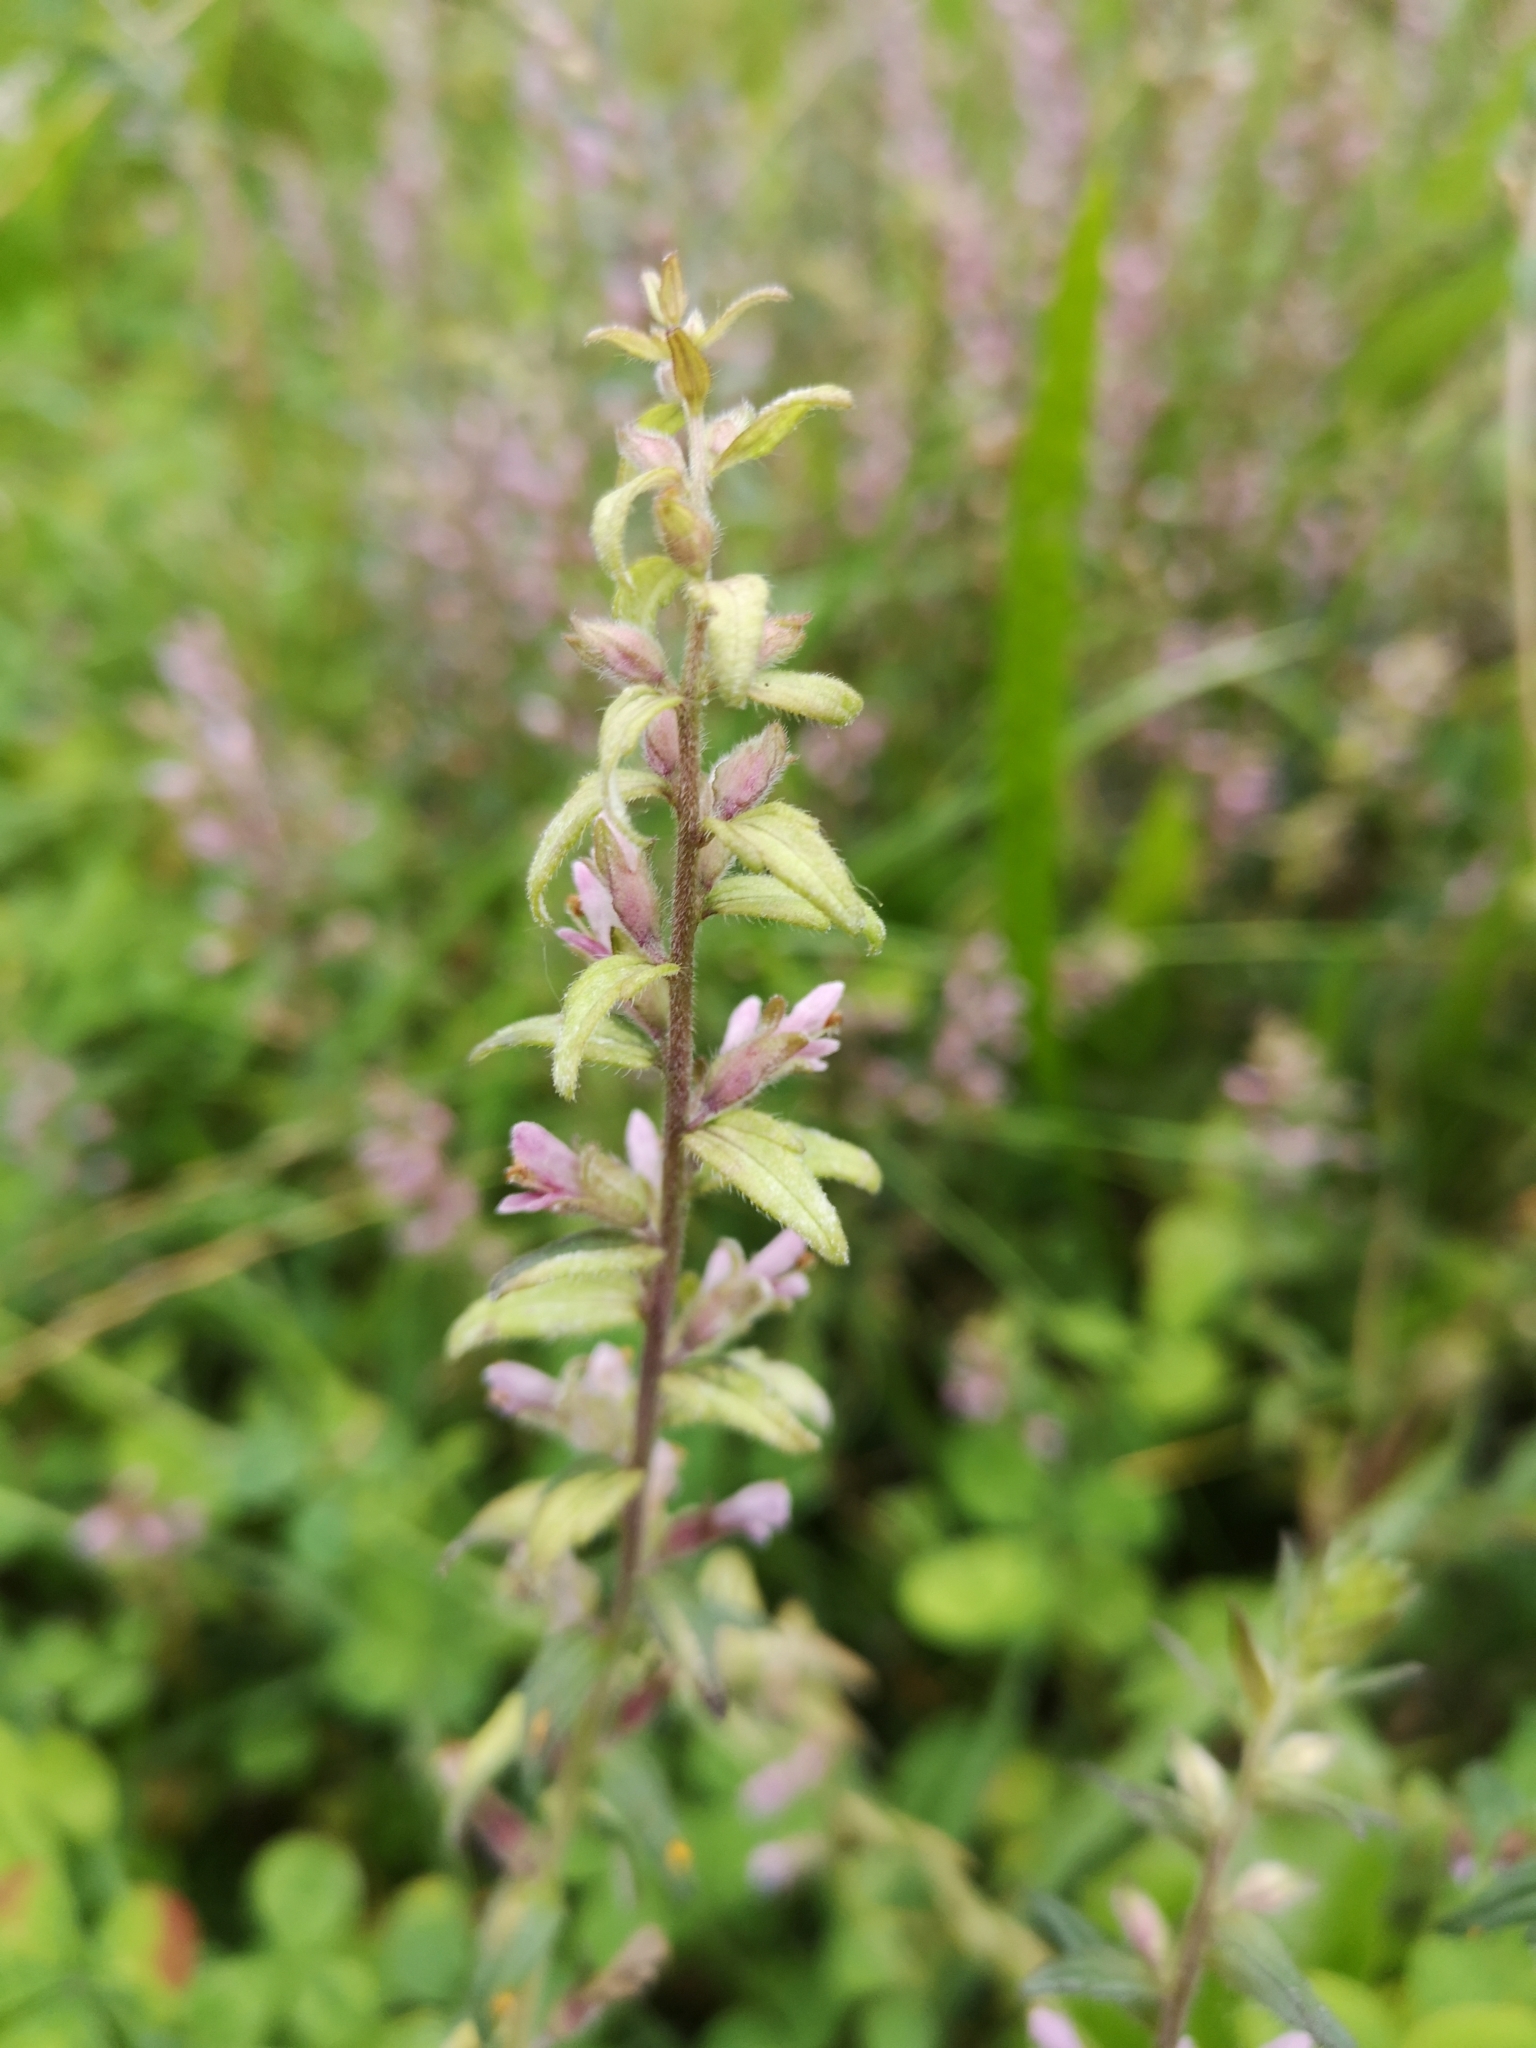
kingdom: Plantae
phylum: Tracheophyta
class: Magnoliopsida
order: Lamiales
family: Orobanchaceae
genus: Odontites
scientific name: Odontites vulgaris
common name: Broomrape
